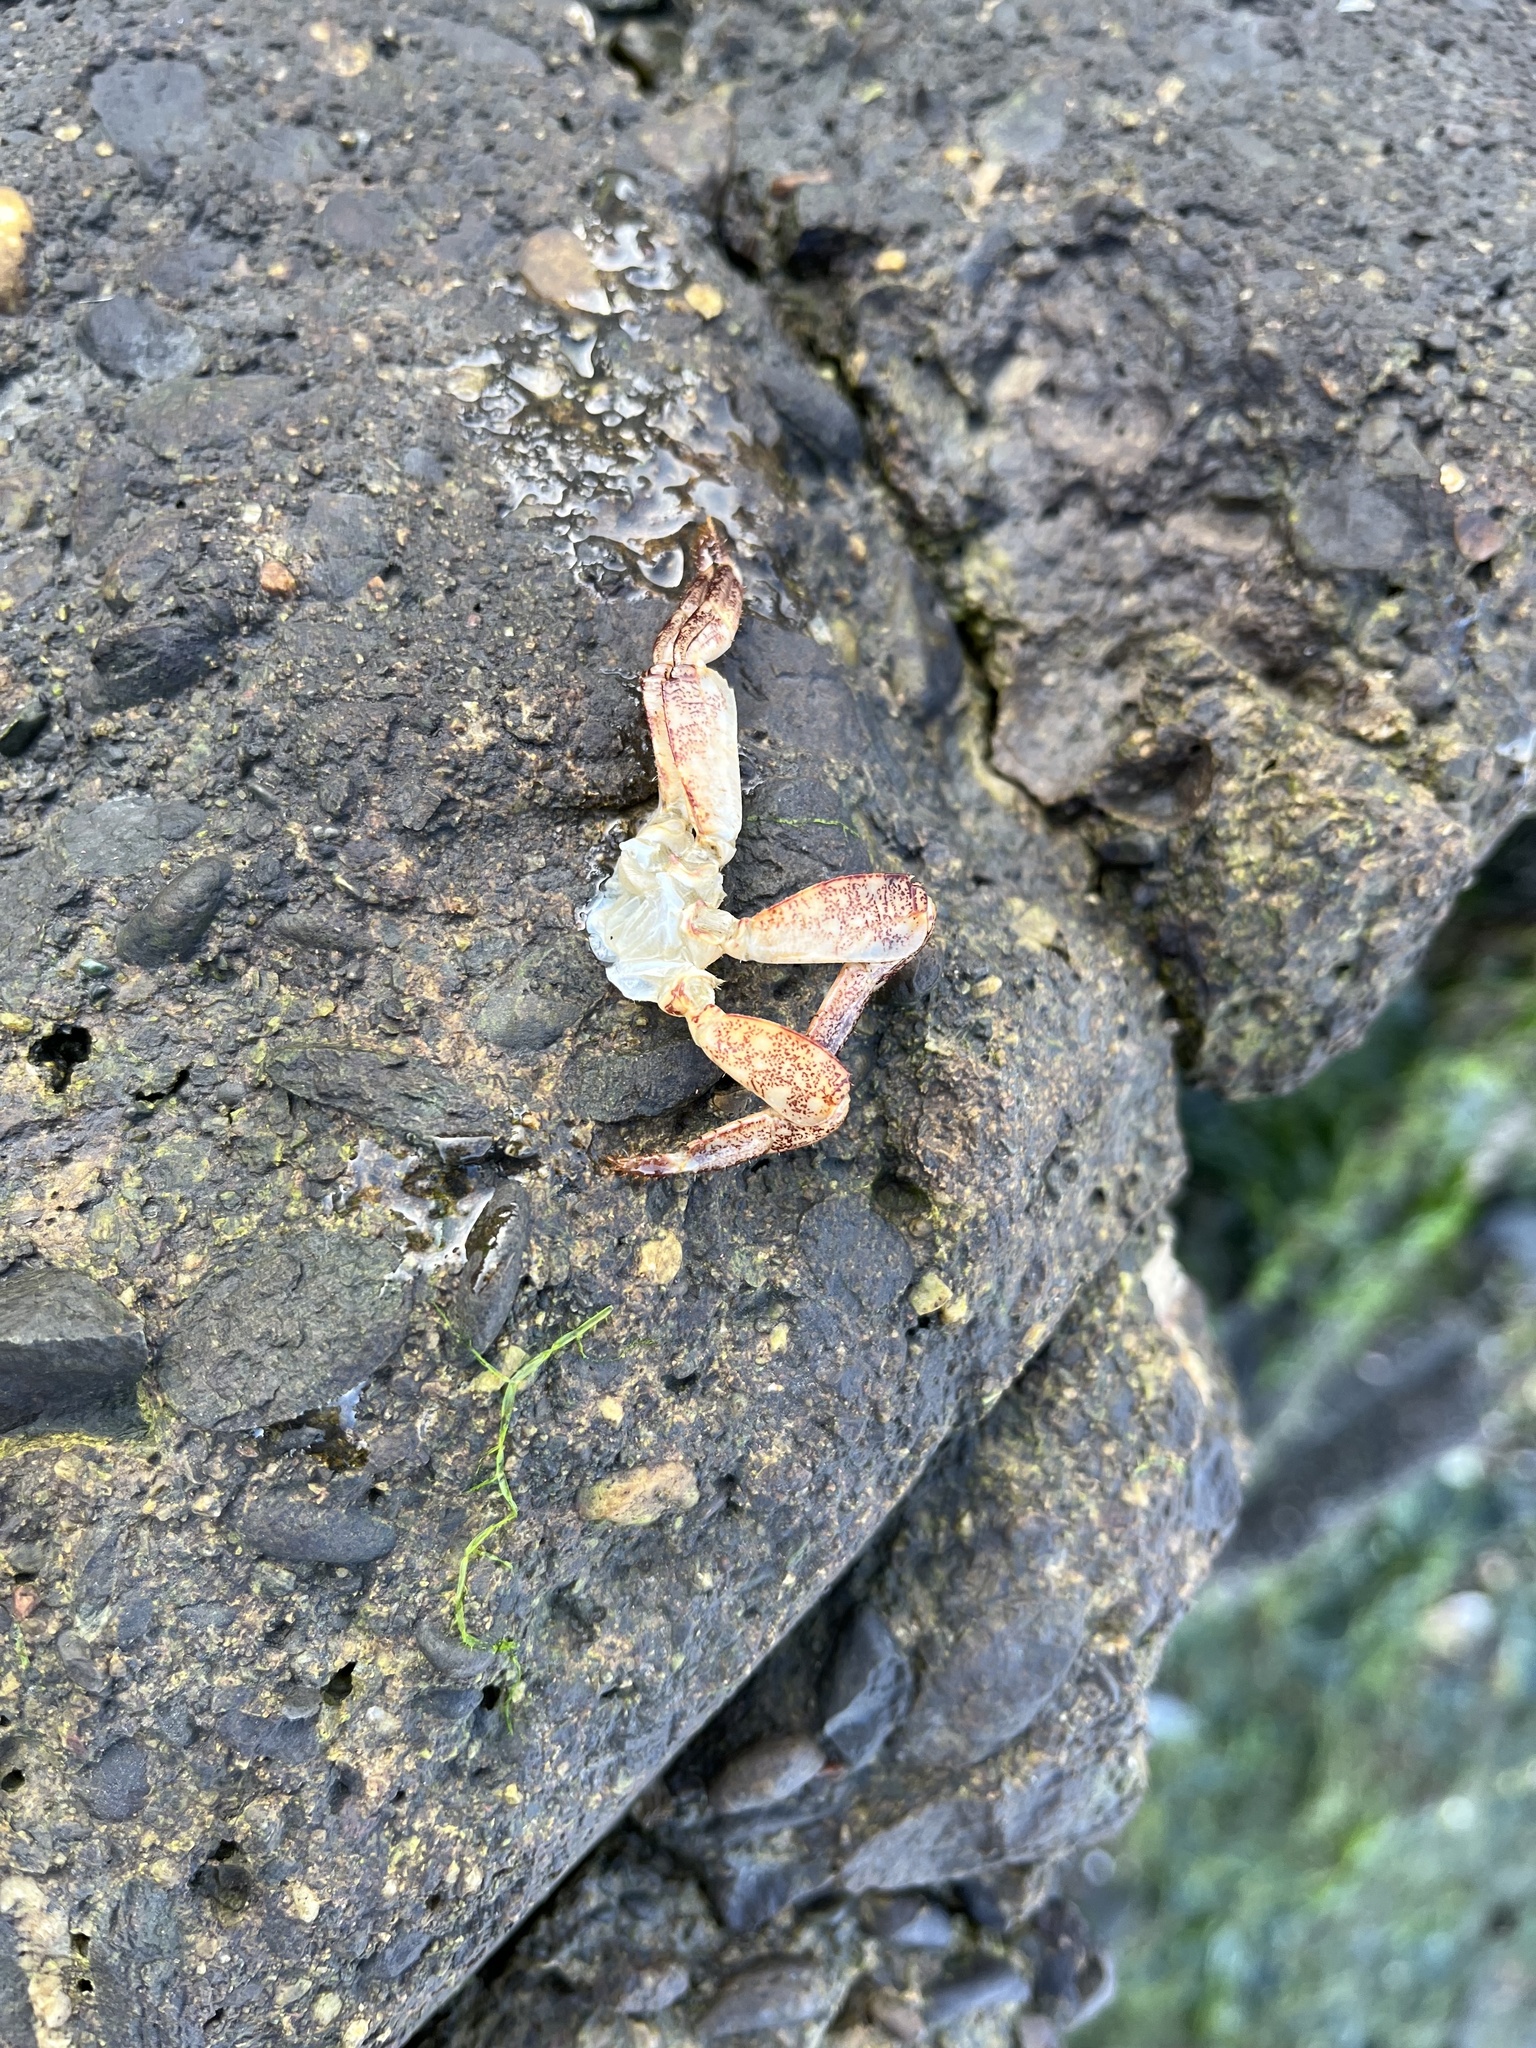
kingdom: Animalia
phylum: Arthropoda
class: Malacostraca
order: Decapoda
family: Grapsidae
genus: Pachygrapsus
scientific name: Pachygrapsus crassipes
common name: Striped shore crab
